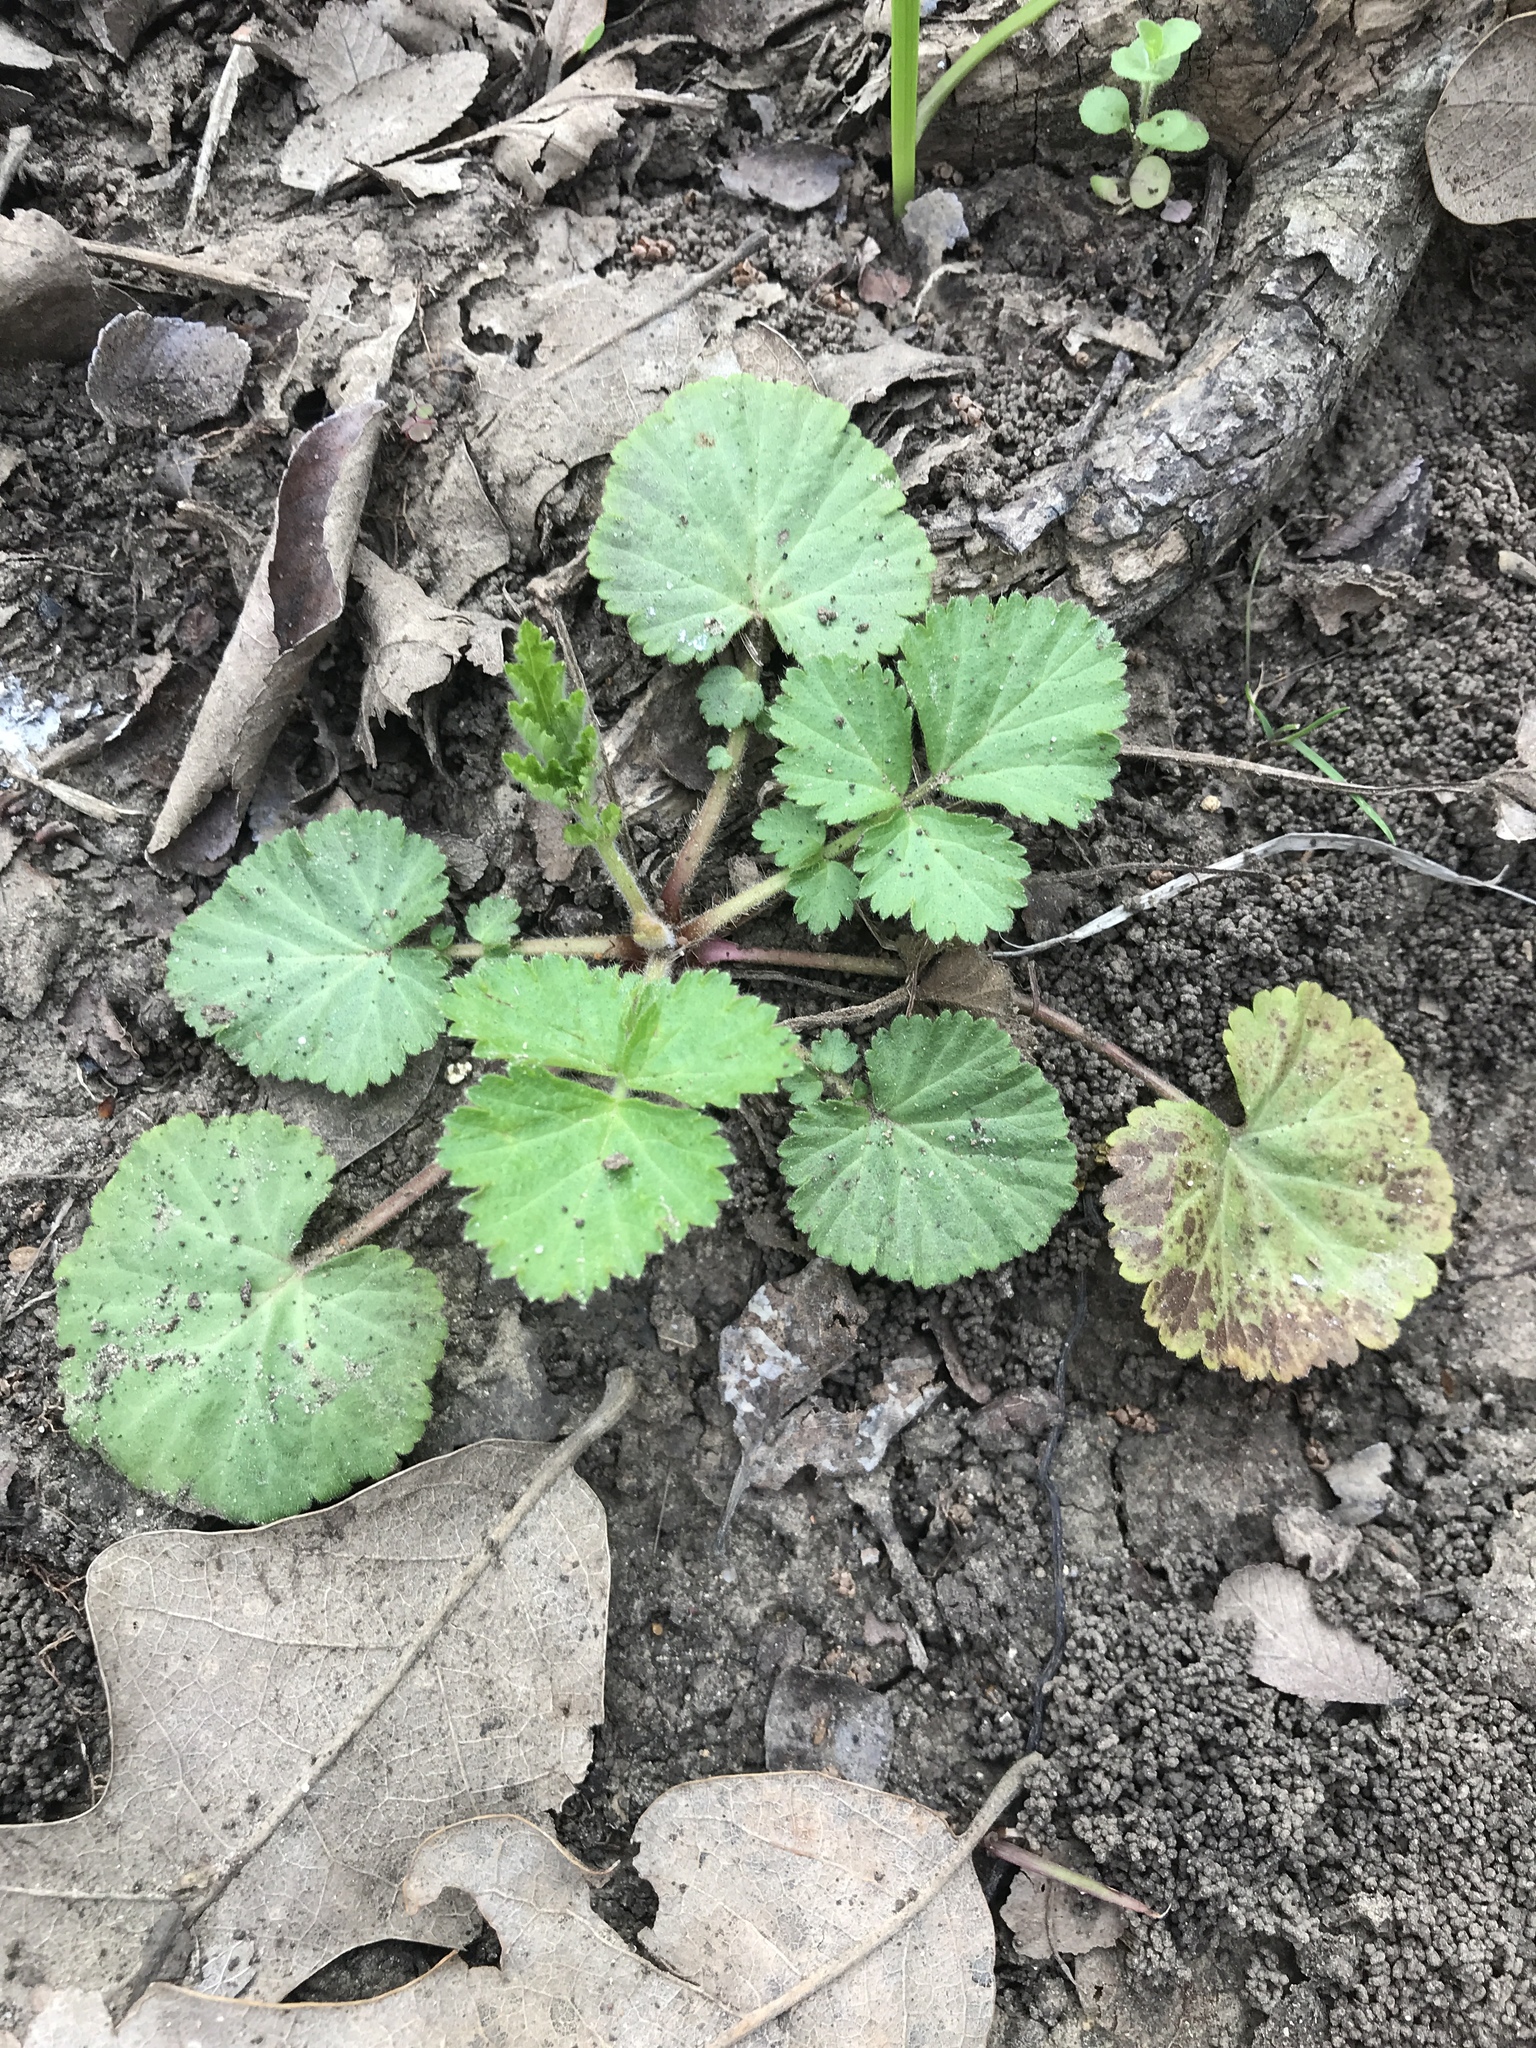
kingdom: Plantae
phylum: Tracheophyta
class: Magnoliopsida
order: Rosales
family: Rosaceae
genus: Geum
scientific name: Geum canadense
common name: White avens
